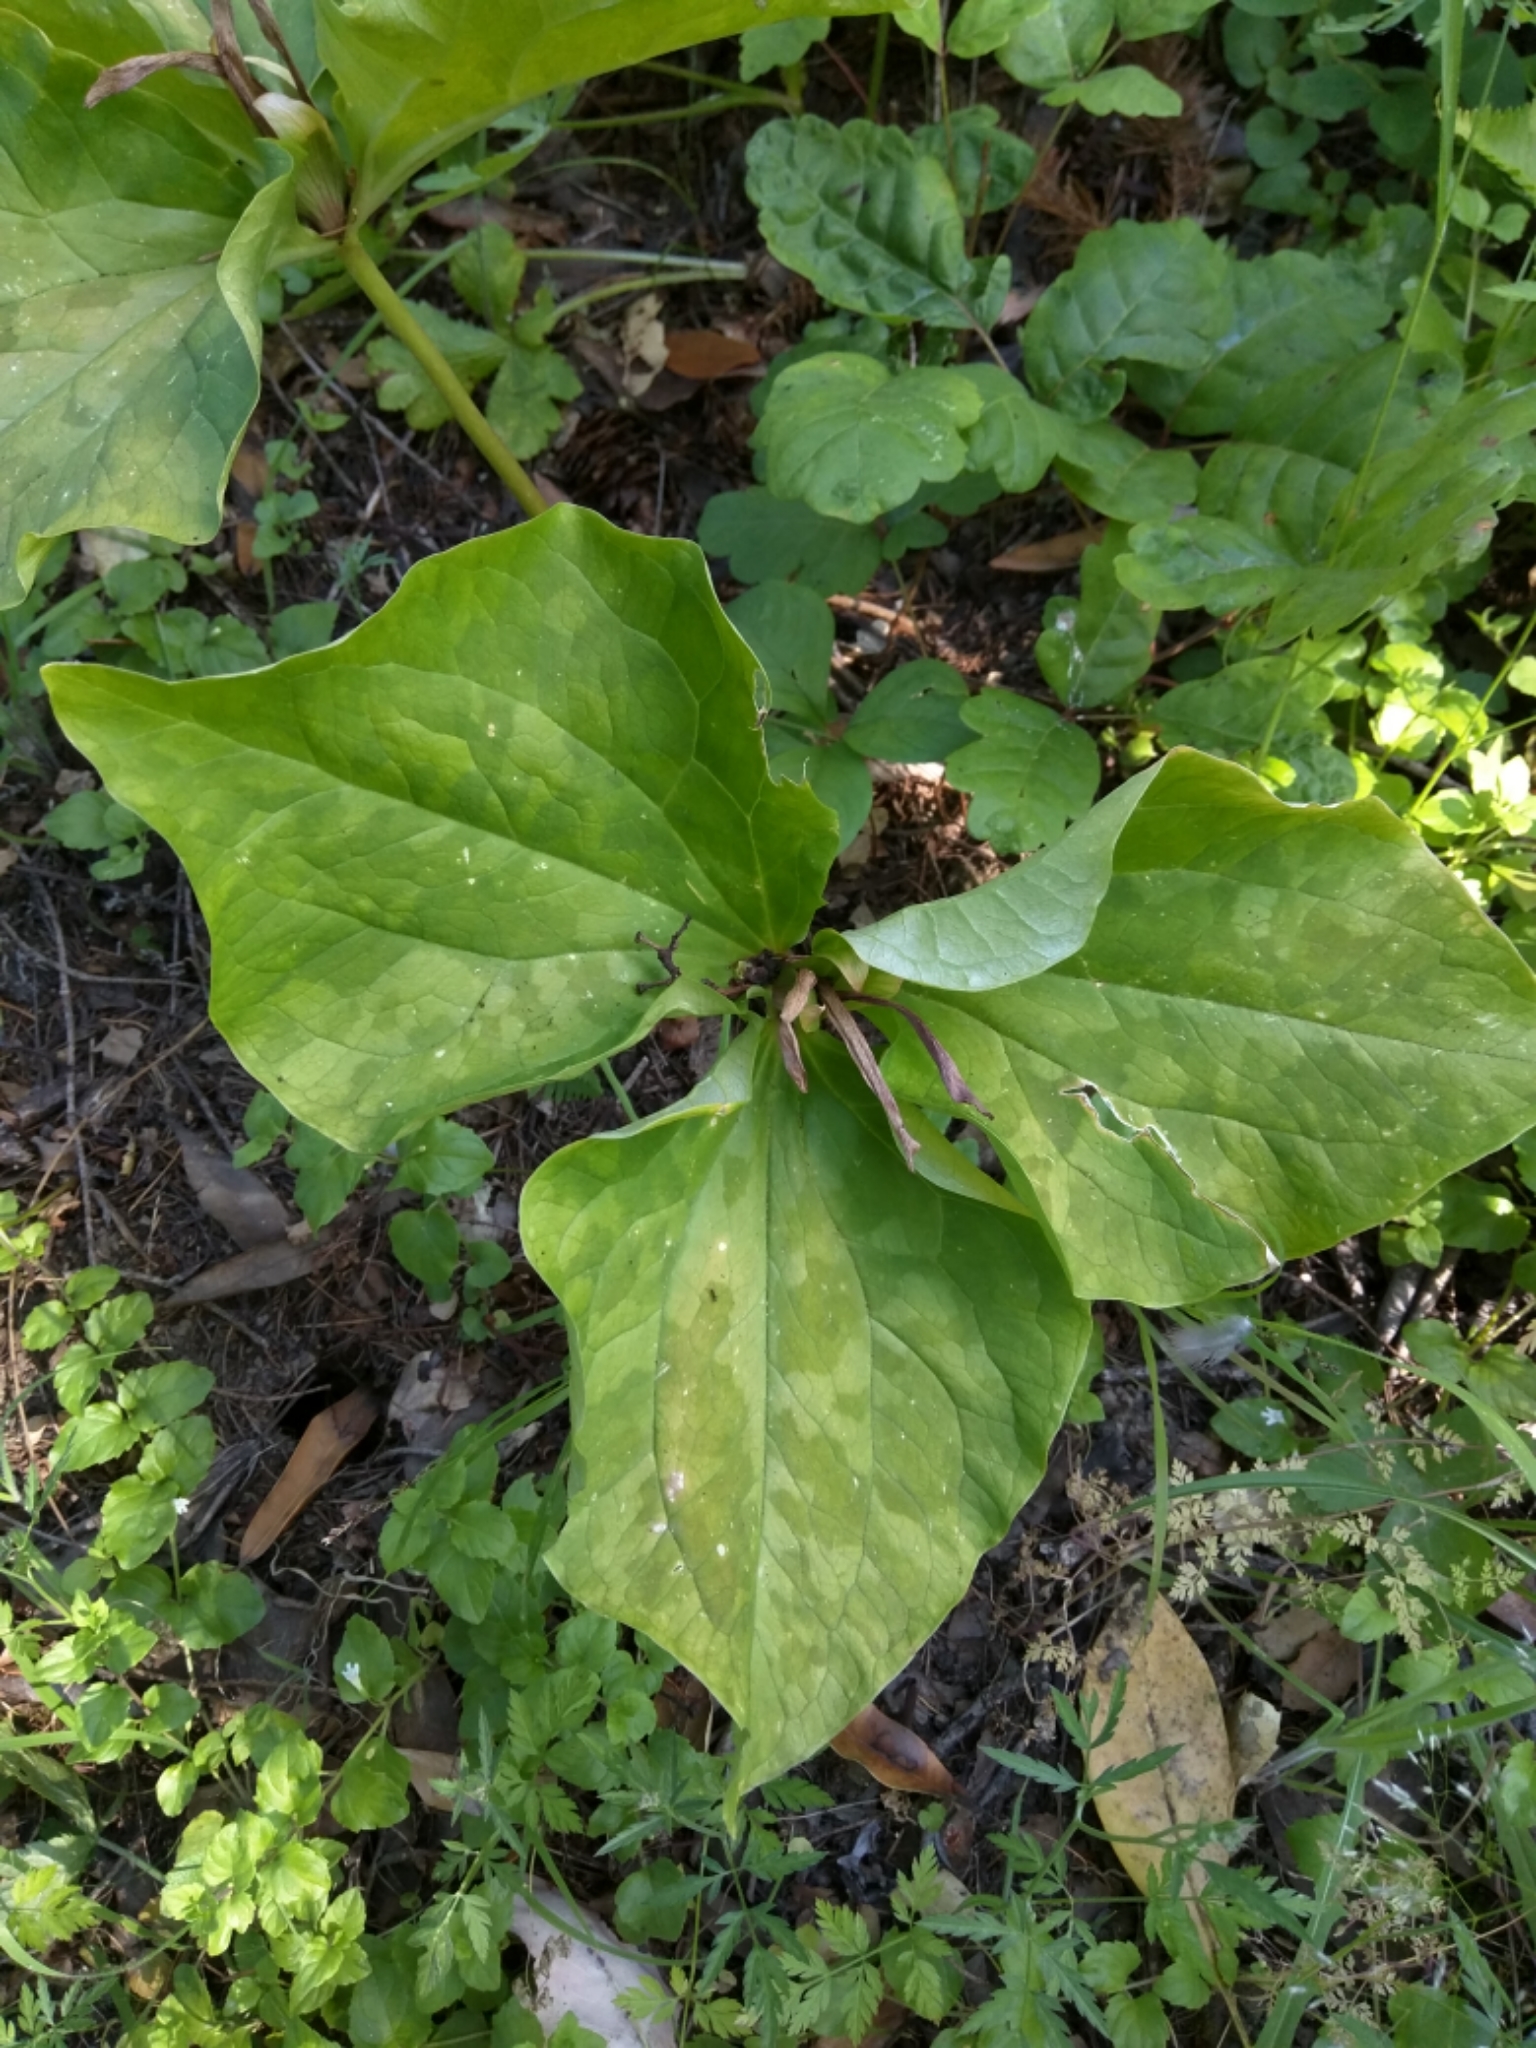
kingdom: Plantae
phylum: Tracheophyta
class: Liliopsida
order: Liliales
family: Melanthiaceae
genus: Trillium
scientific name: Trillium chloropetalum
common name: Giant trillium
